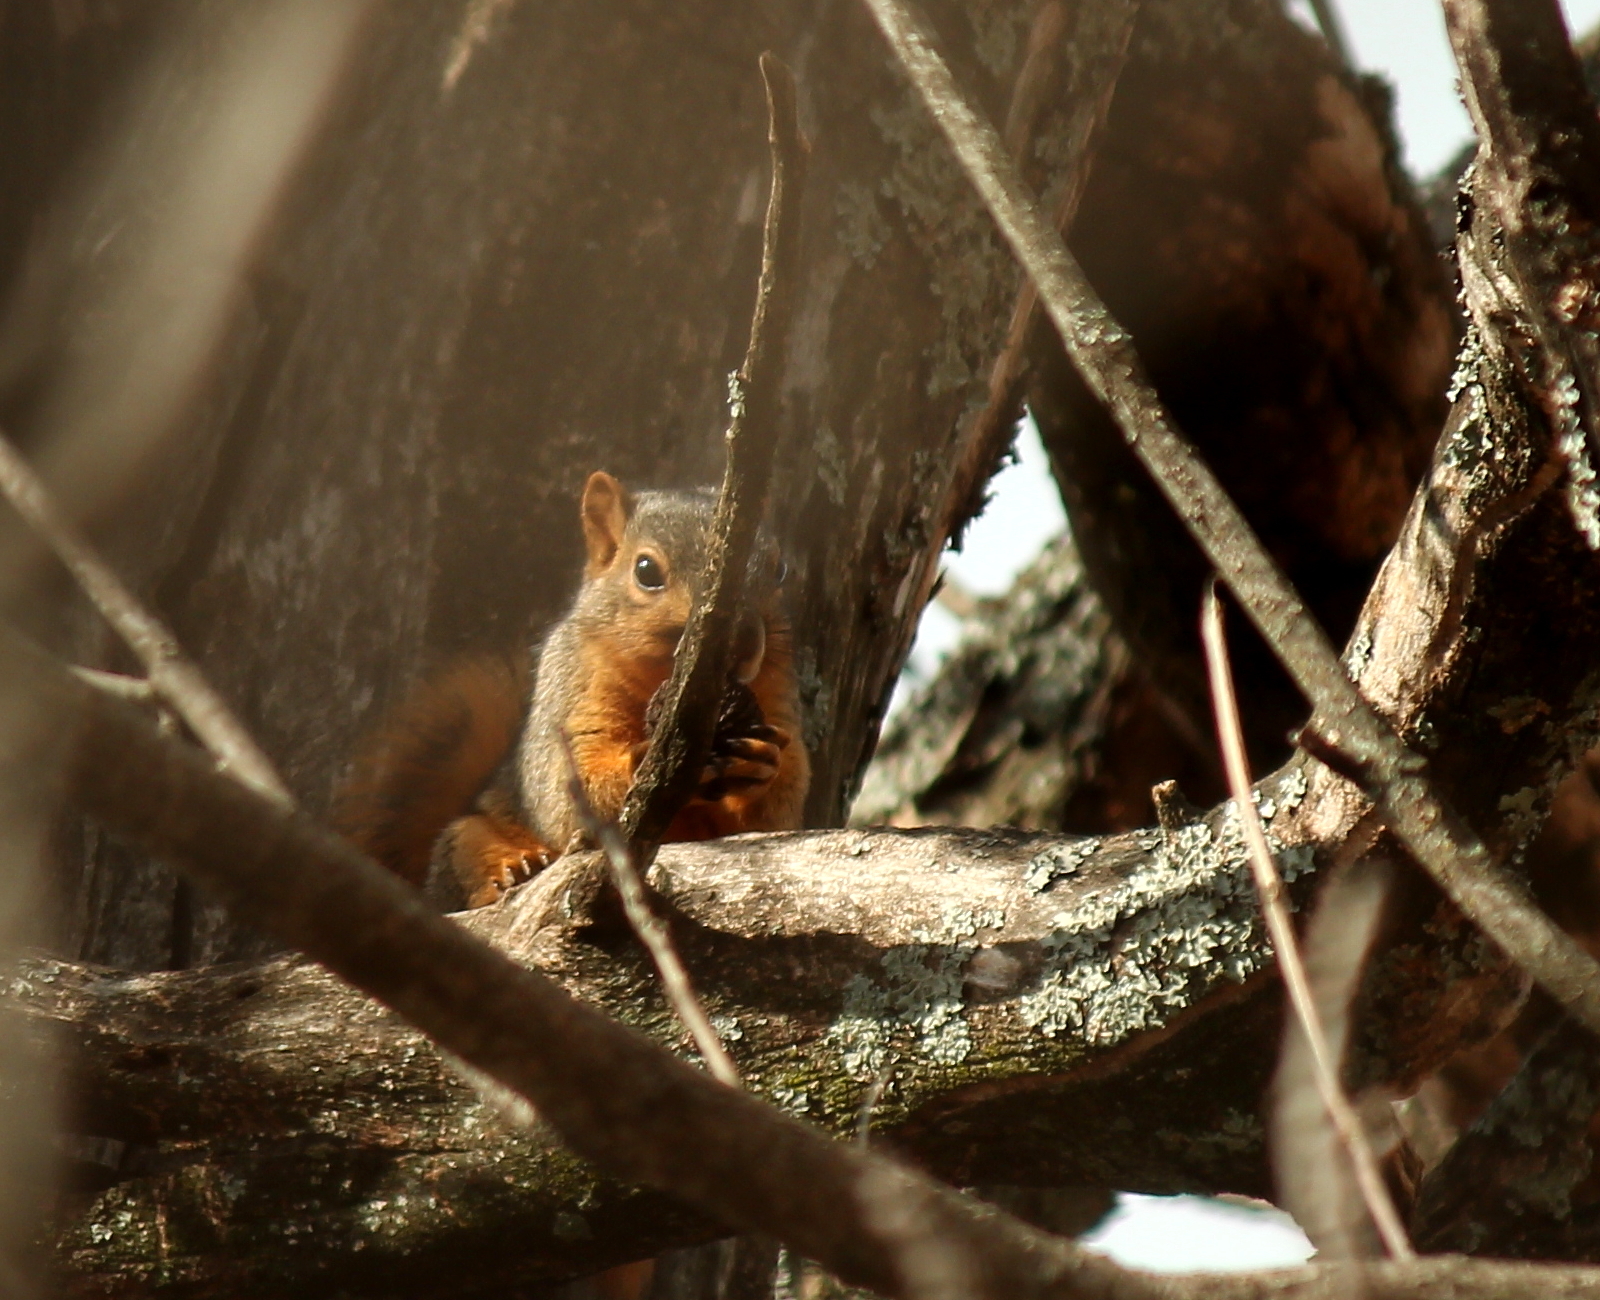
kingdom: Animalia
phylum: Chordata
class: Mammalia
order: Rodentia
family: Sciuridae
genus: Sciurus
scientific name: Sciurus niger
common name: Fox squirrel
